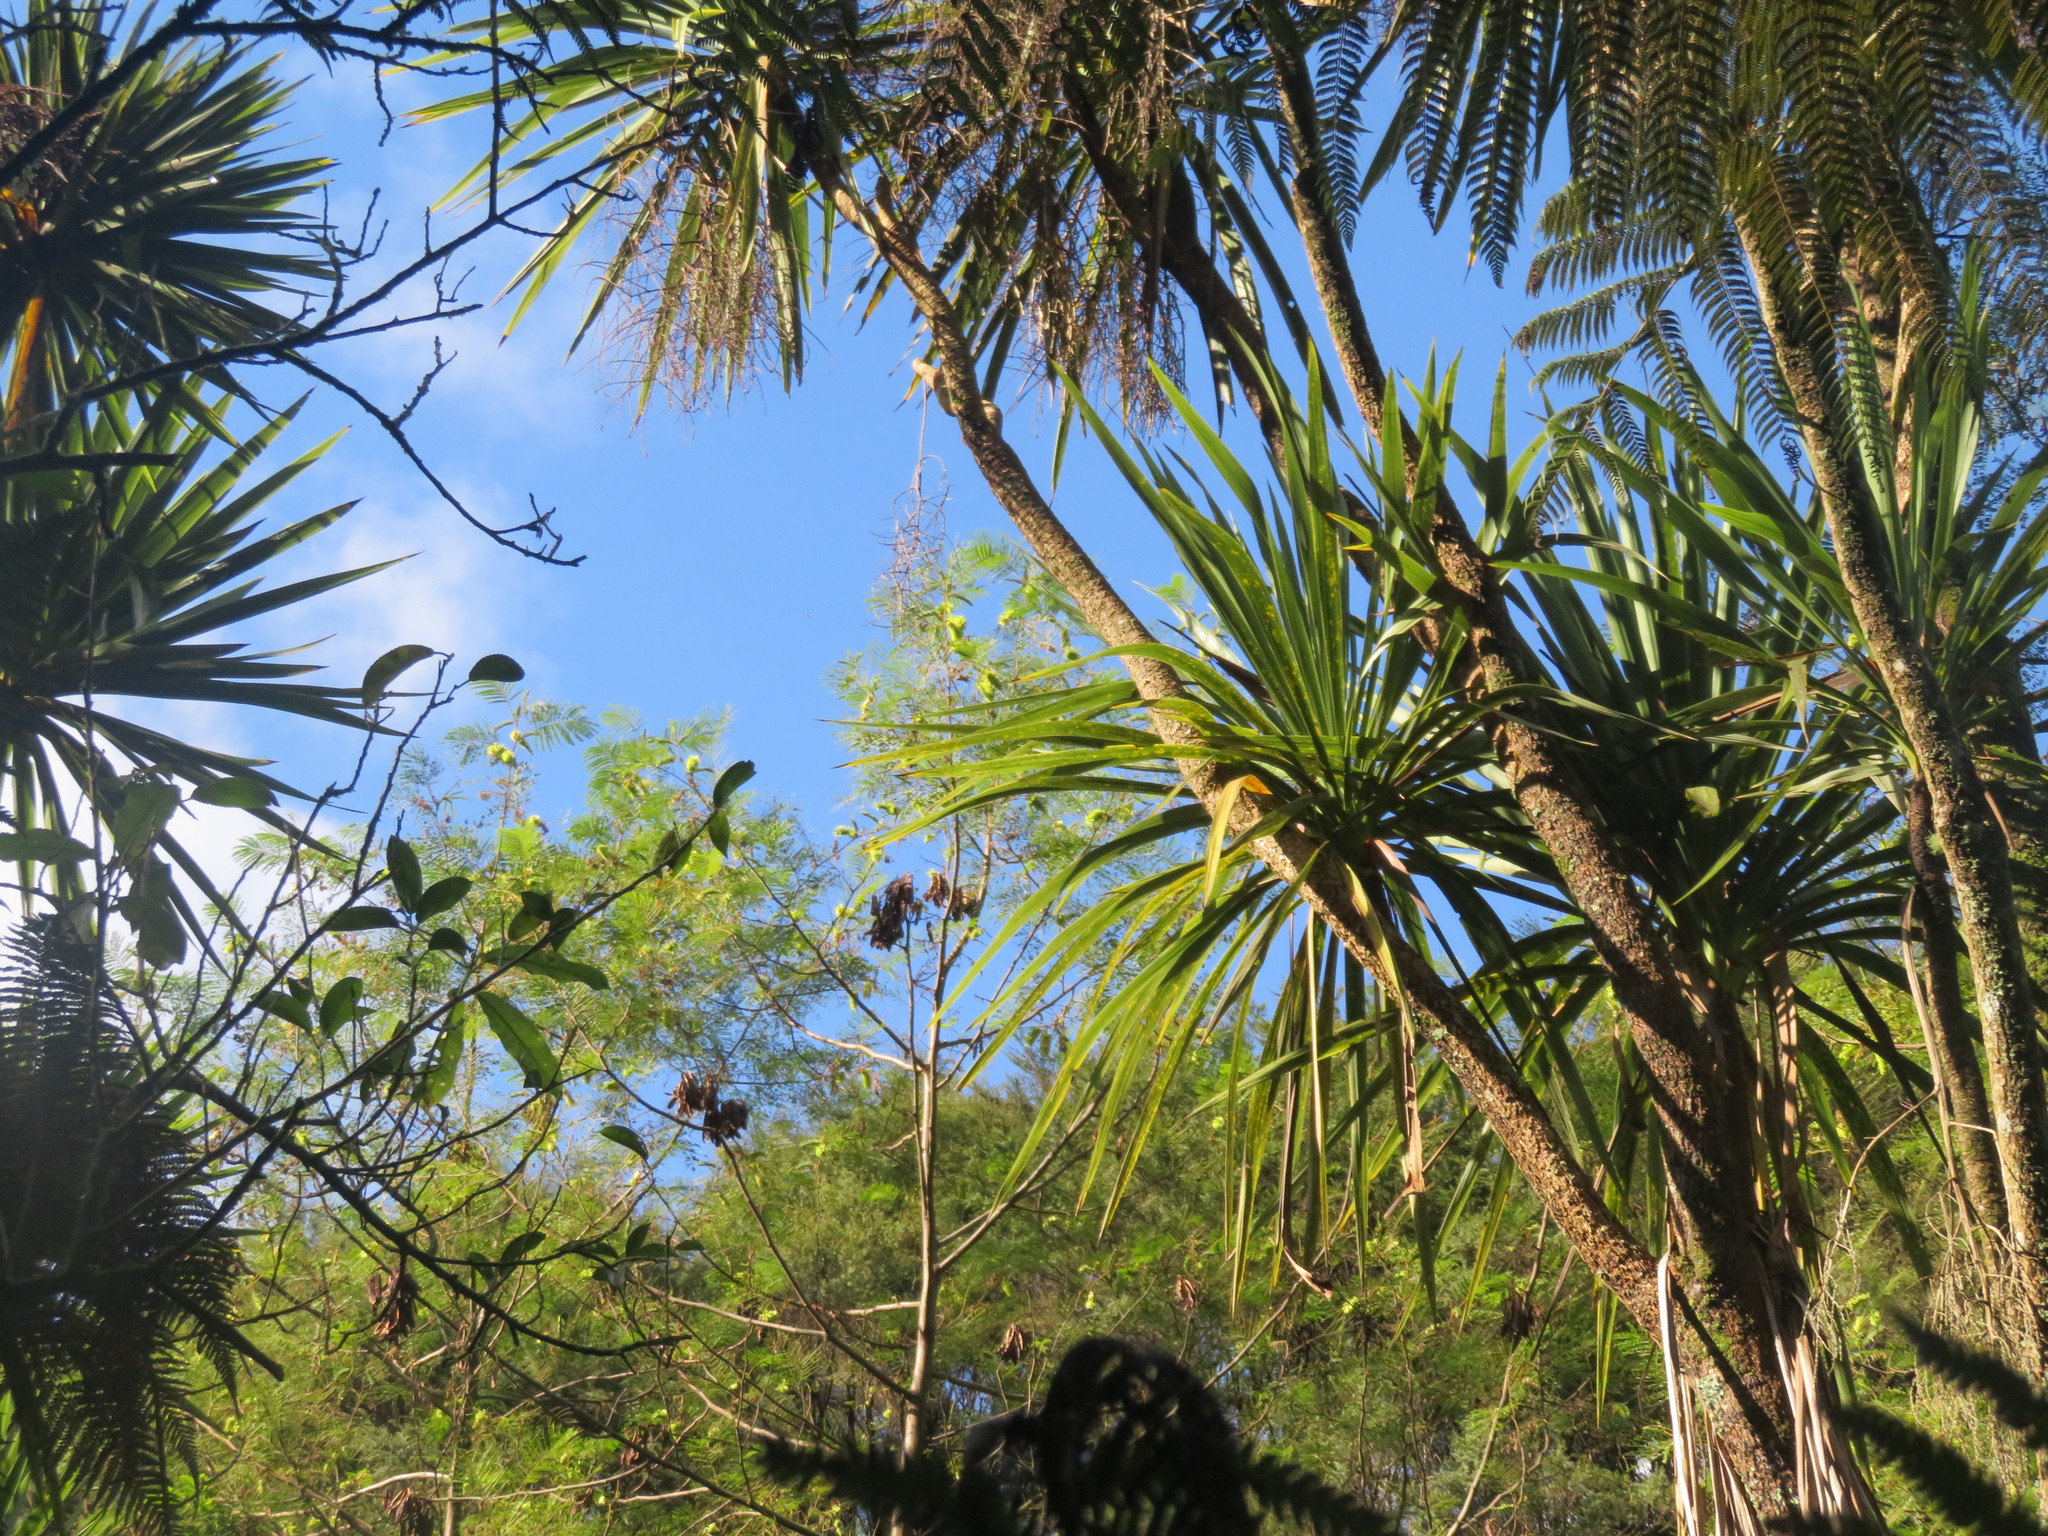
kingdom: Plantae
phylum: Tracheophyta
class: Magnoliopsida
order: Fabales
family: Fabaceae
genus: Paraserianthes
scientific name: Paraserianthes lophantha
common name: Plume albizia
